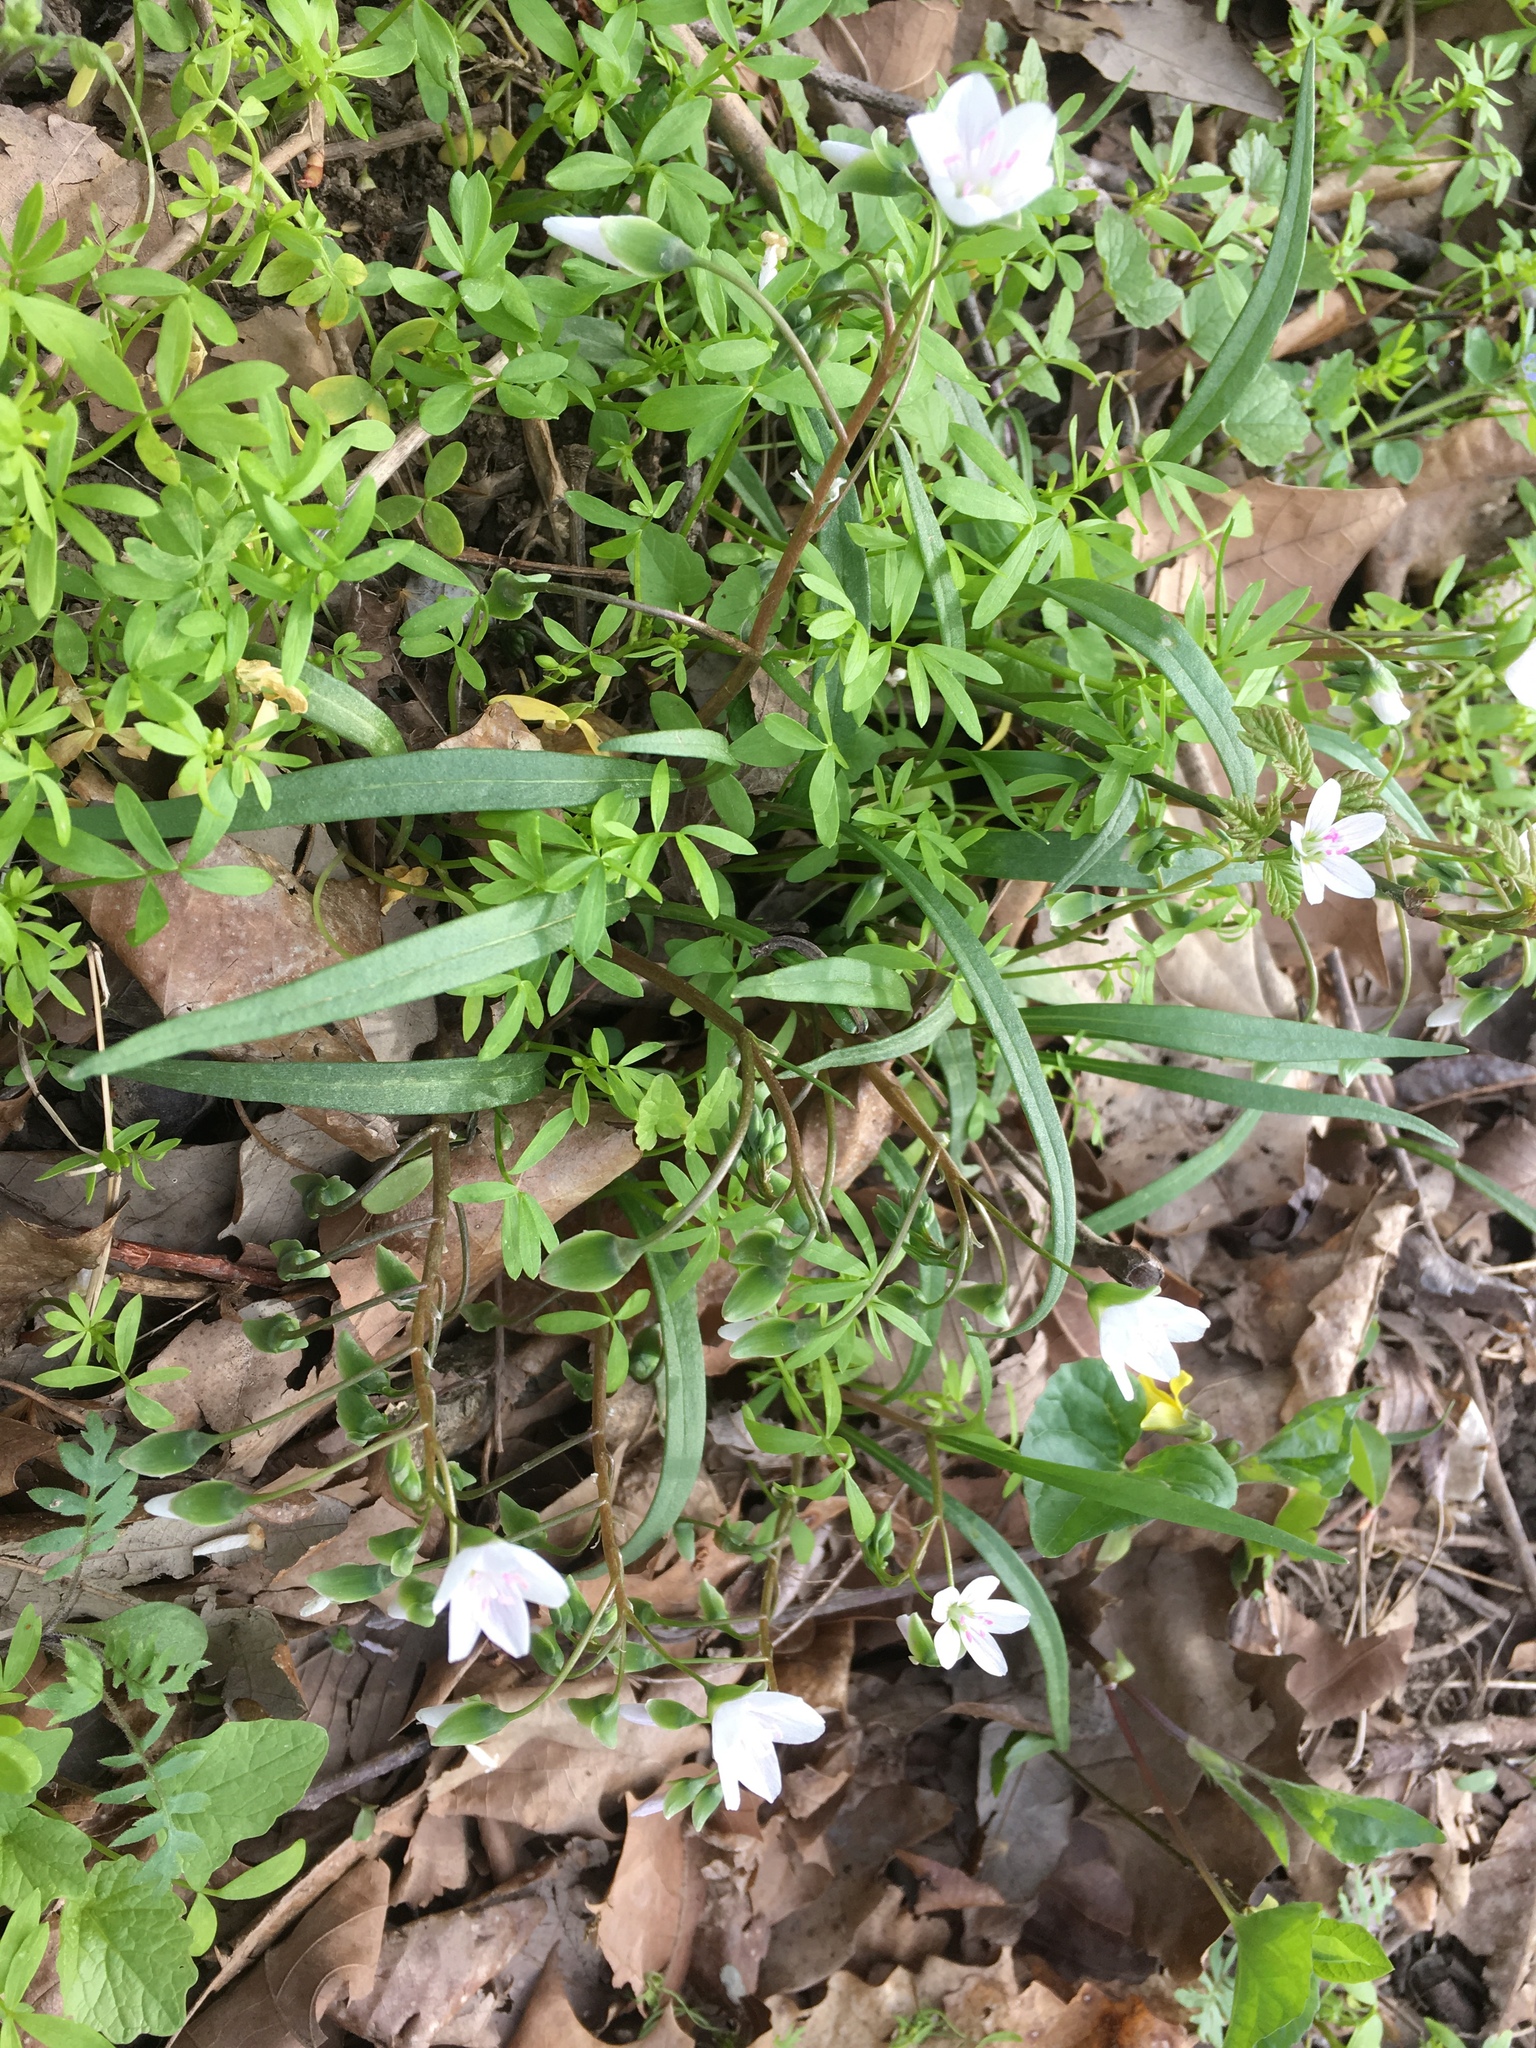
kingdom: Plantae
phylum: Tracheophyta
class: Magnoliopsida
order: Caryophyllales
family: Montiaceae
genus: Claytonia
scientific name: Claytonia virginica
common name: Virginia springbeauty
